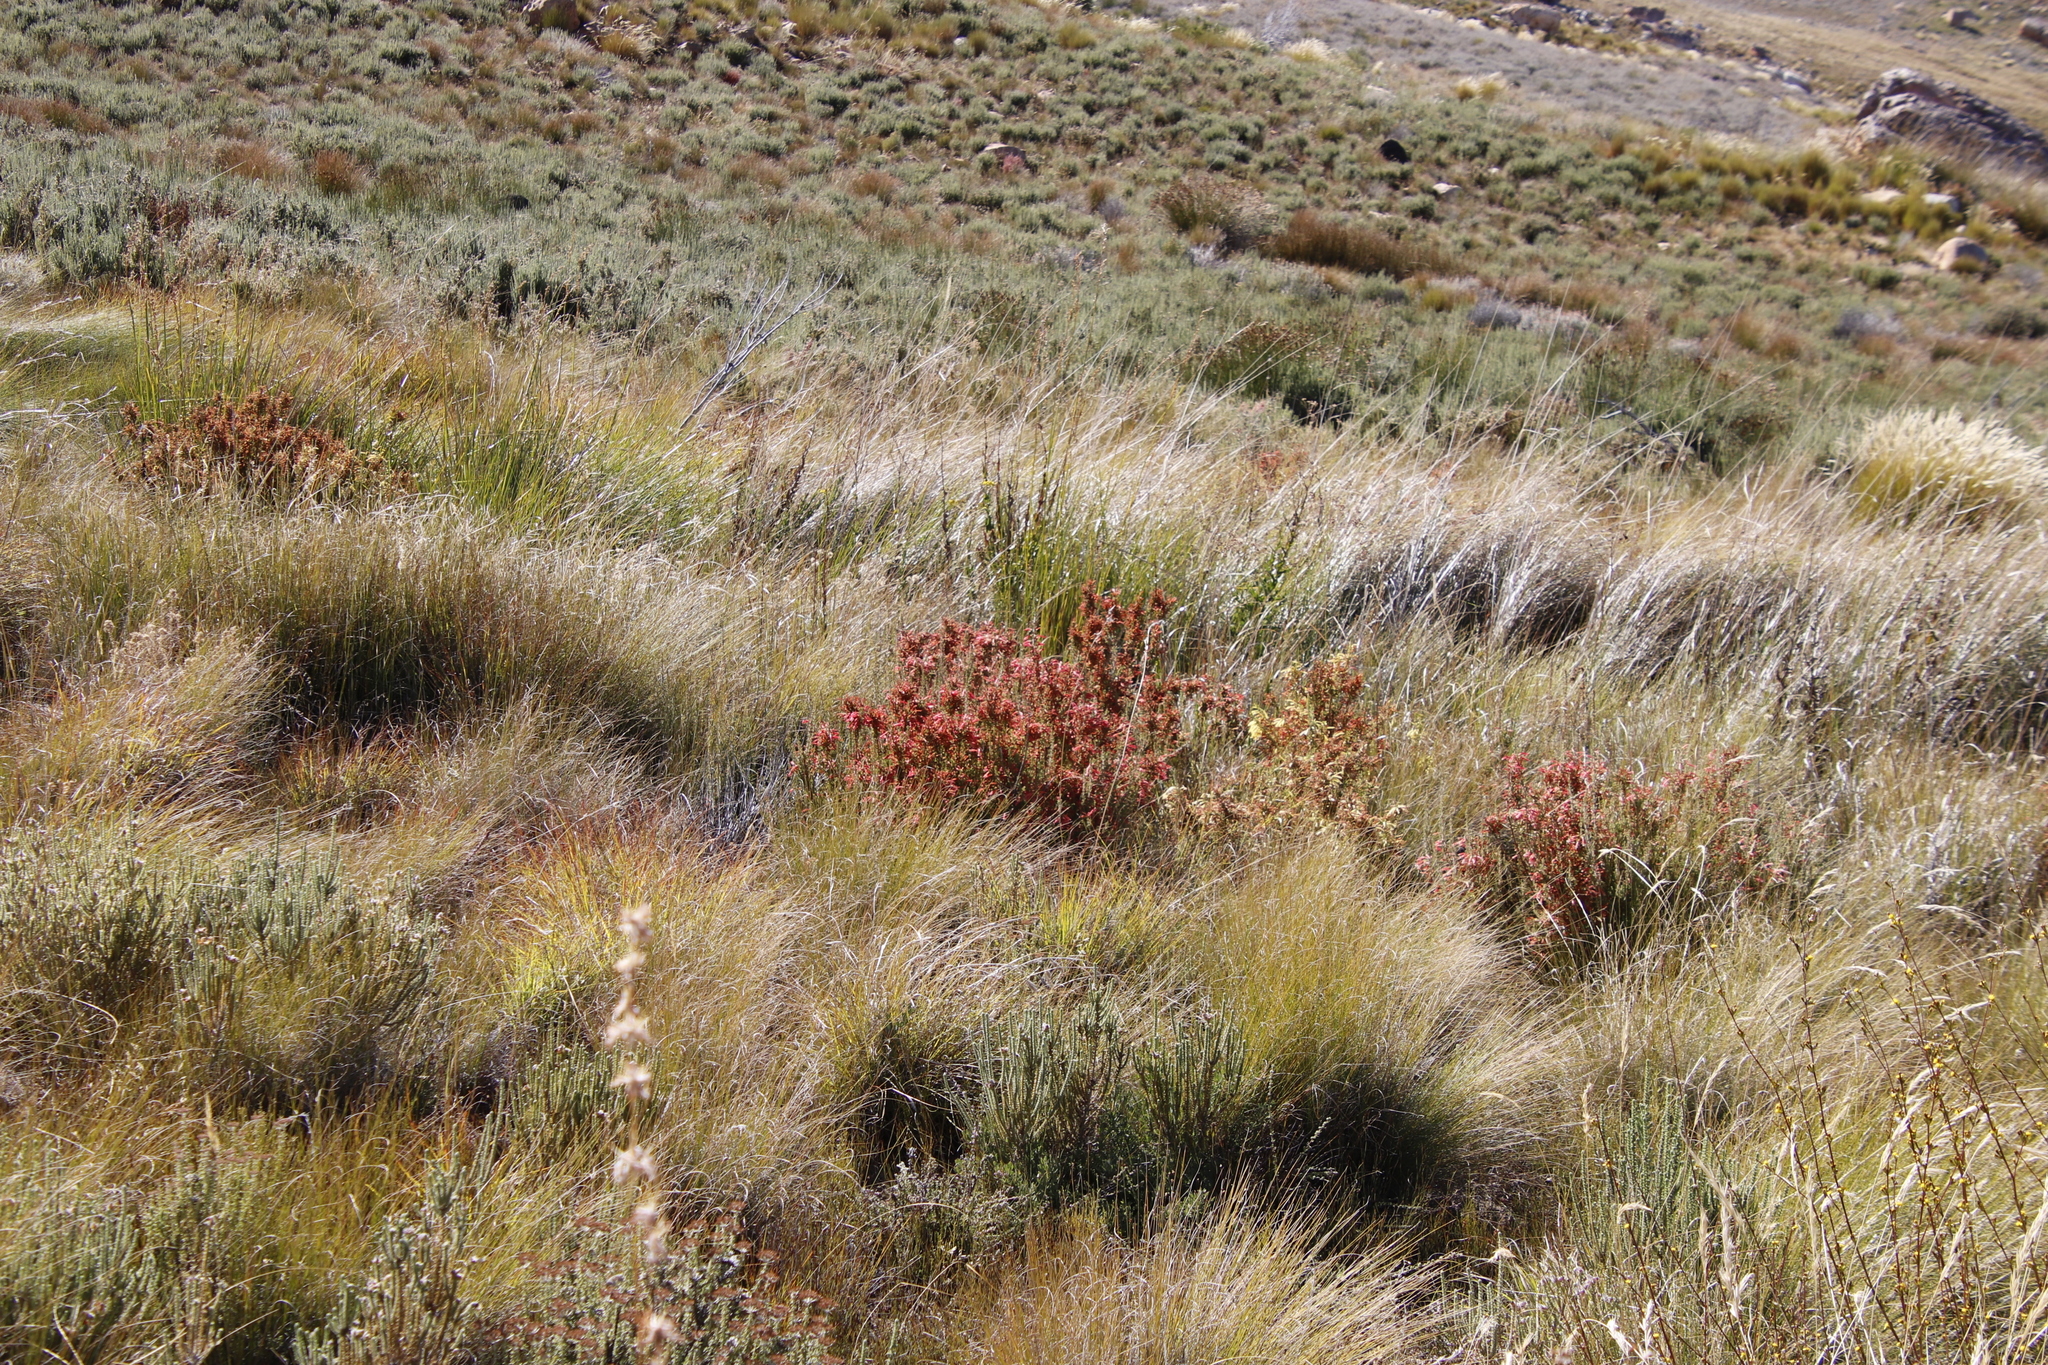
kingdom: Plantae
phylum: Tracheophyta
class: Magnoliopsida
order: Ericales
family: Ericaceae
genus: Erica
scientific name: Erica curviflora
